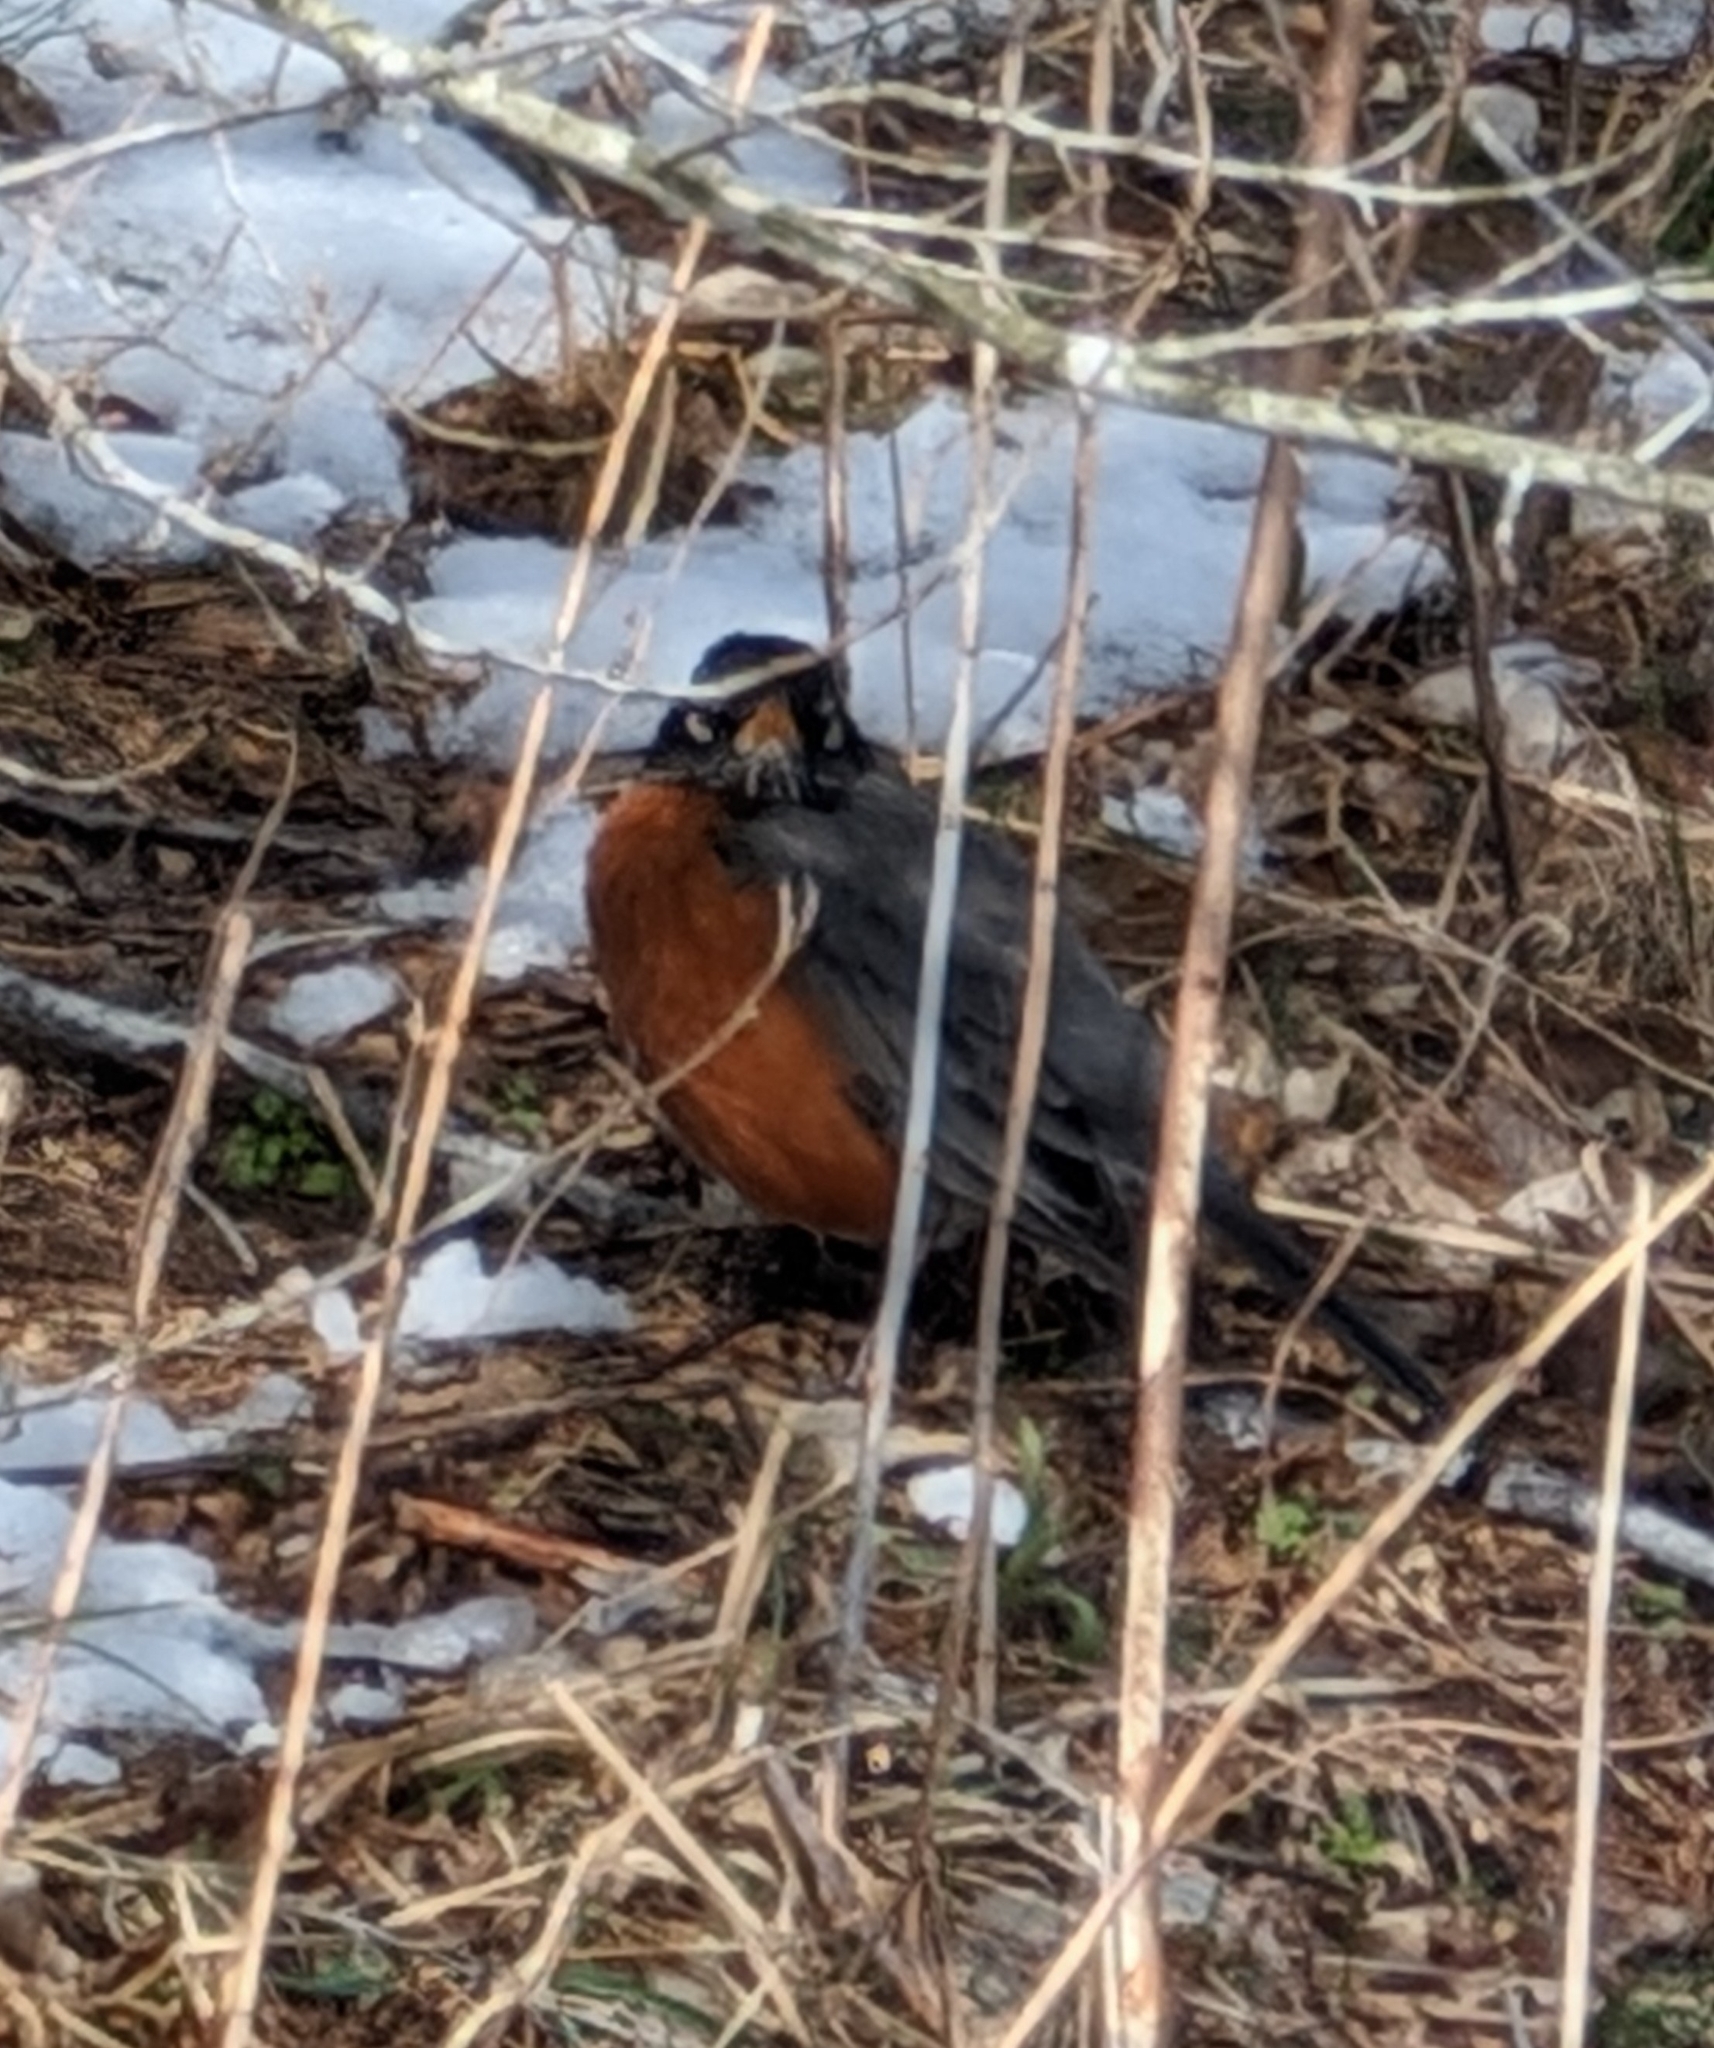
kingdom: Animalia
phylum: Chordata
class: Aves
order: Passeriformes
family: Turdidae
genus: Turdus
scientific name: Turdus migratorius
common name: American robin
